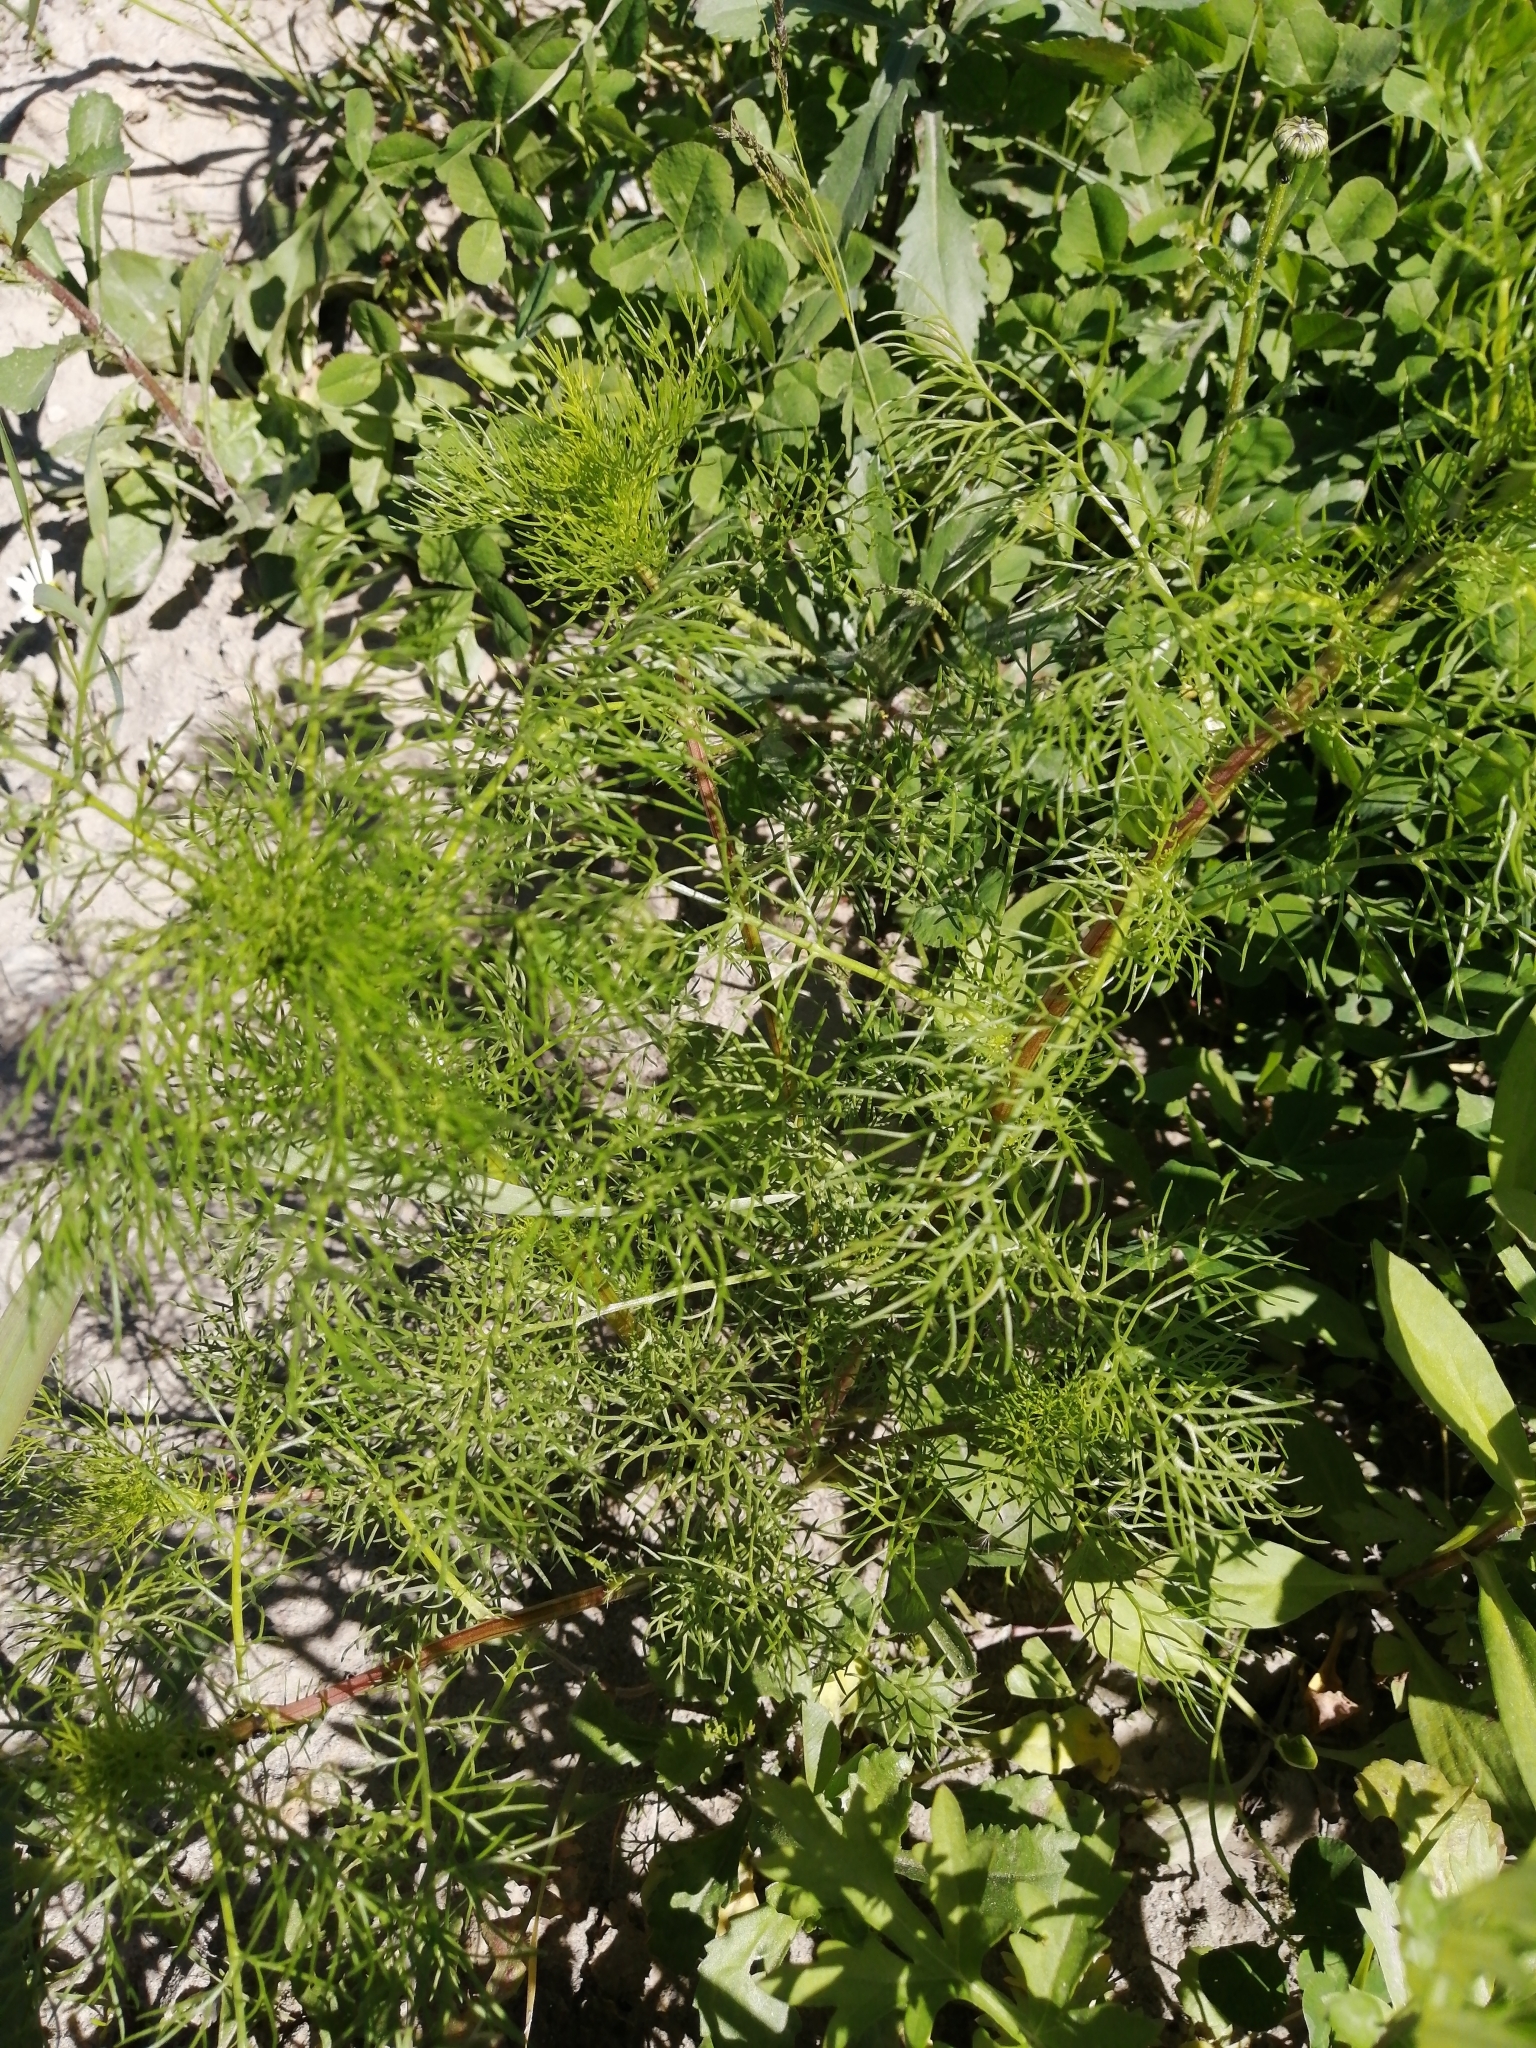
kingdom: Plantae
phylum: Tracheophyta
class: Magnoliopsida
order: Asterales
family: Asteraceae
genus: Tripleurospermum
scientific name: Tripleurospermum inodorum
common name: Scentless mayweed
